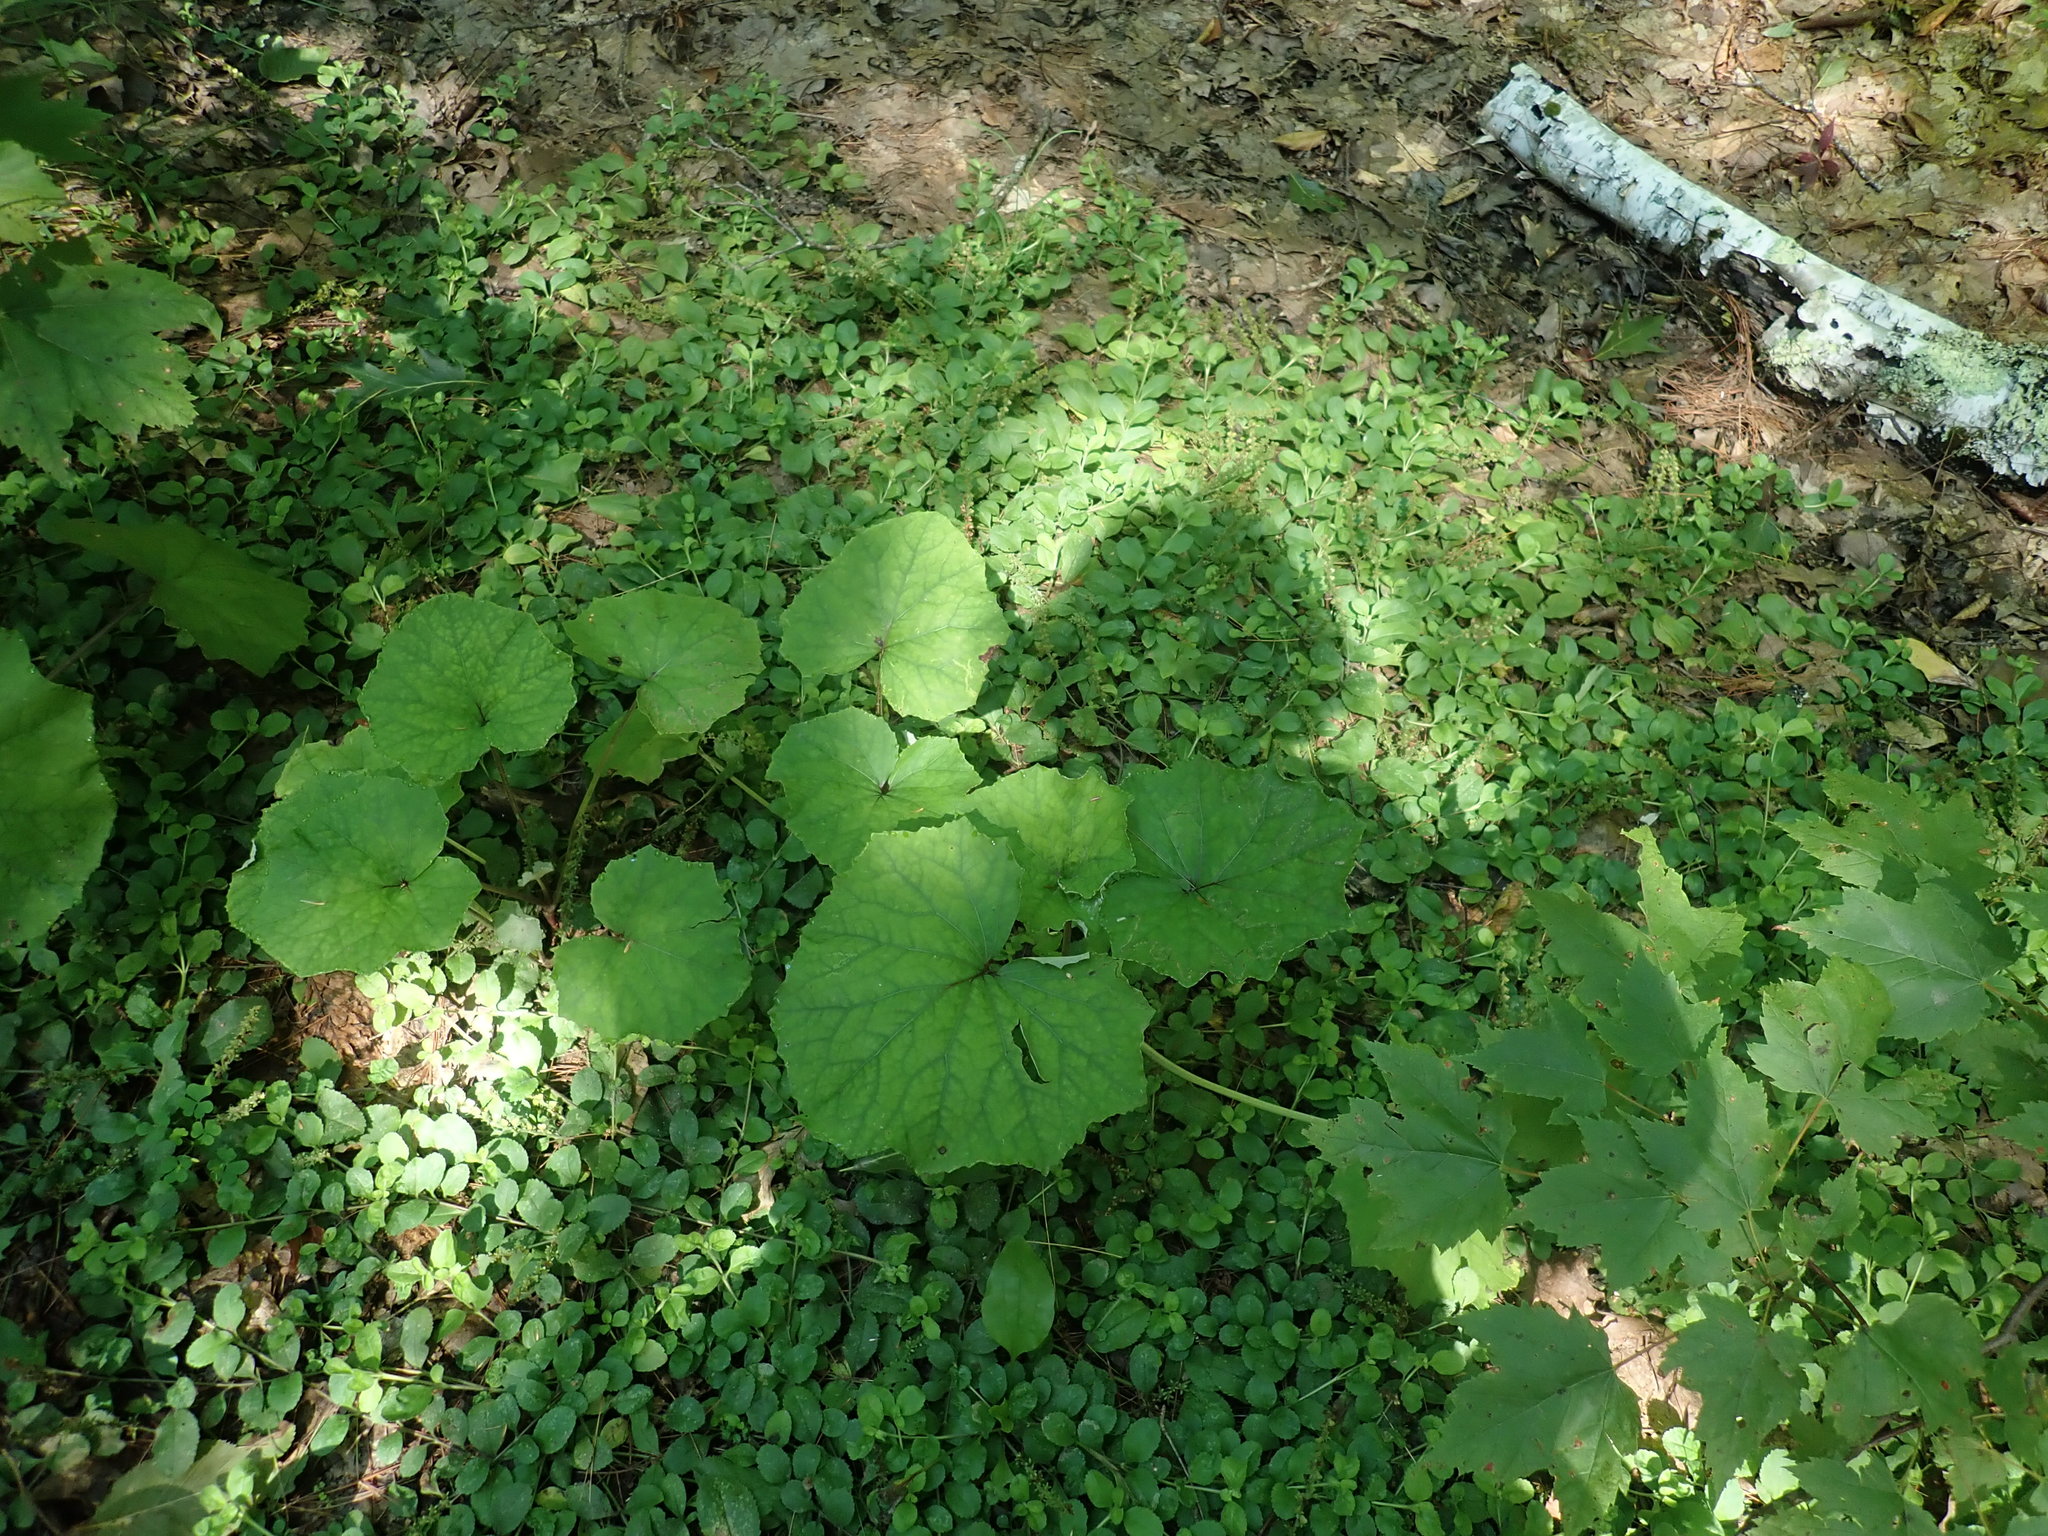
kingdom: Plantae
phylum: Tracheophyta
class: Magnoliopsida
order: Asterales
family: Asteraceae
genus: Tussilago
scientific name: Tussilago farfara
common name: Coltsfoot
